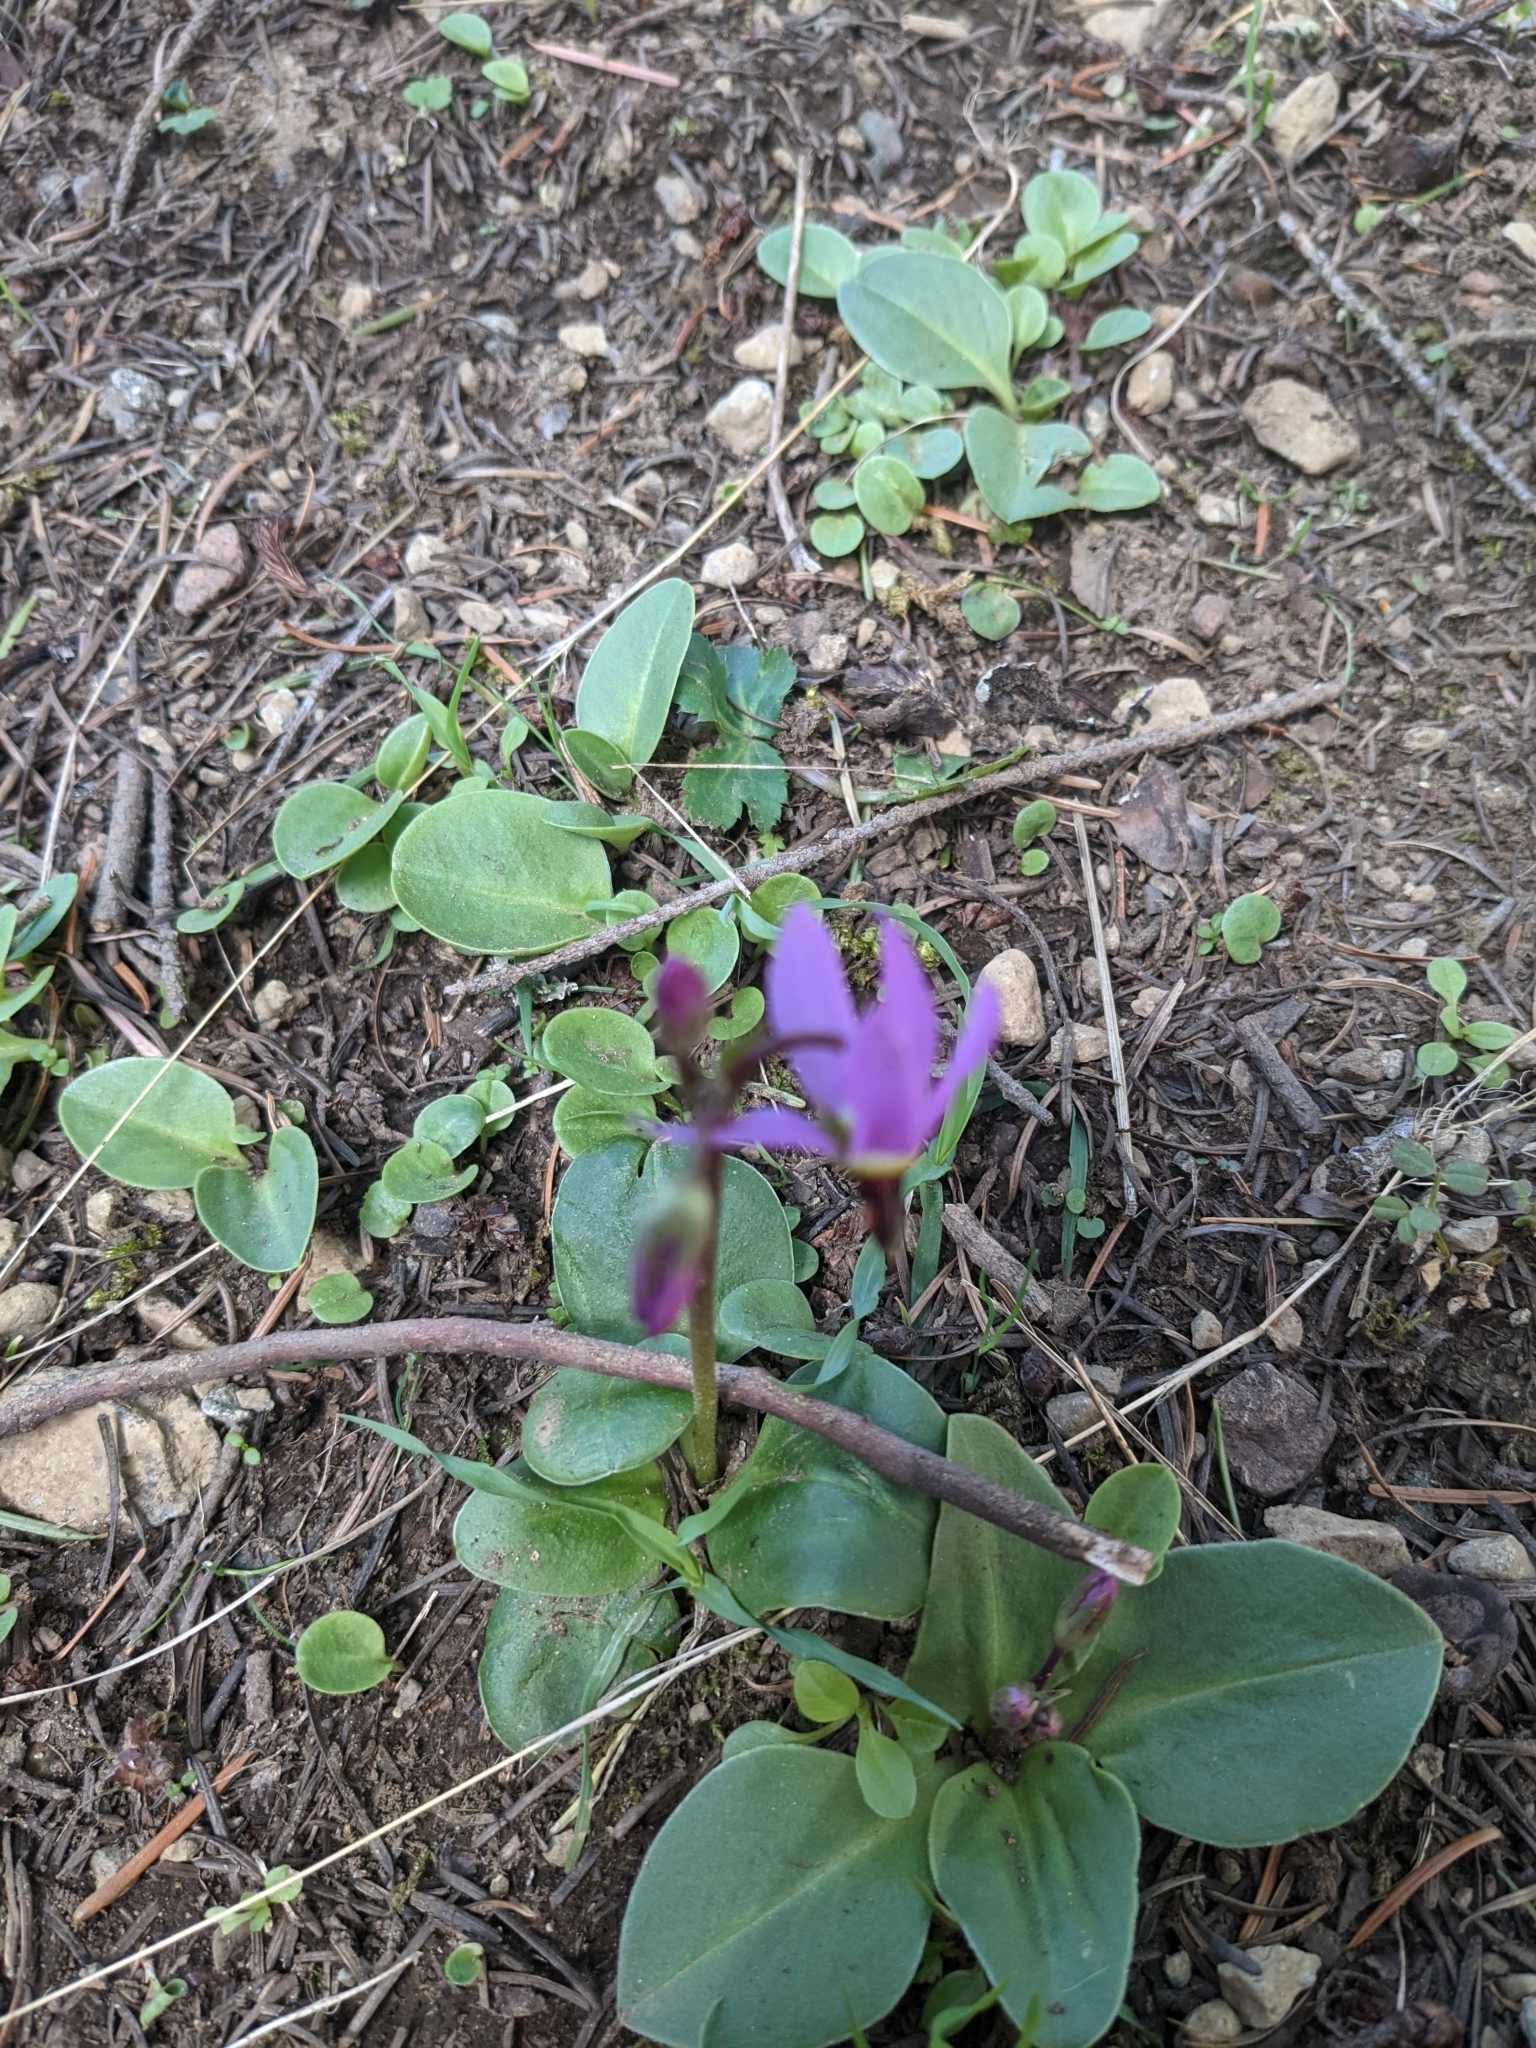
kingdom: Plantae
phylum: Tracheophyta
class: Magnoliopsida
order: Ericales
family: Primulaceae
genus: Dodecatheon
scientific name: Dodecatheon hendersonii
